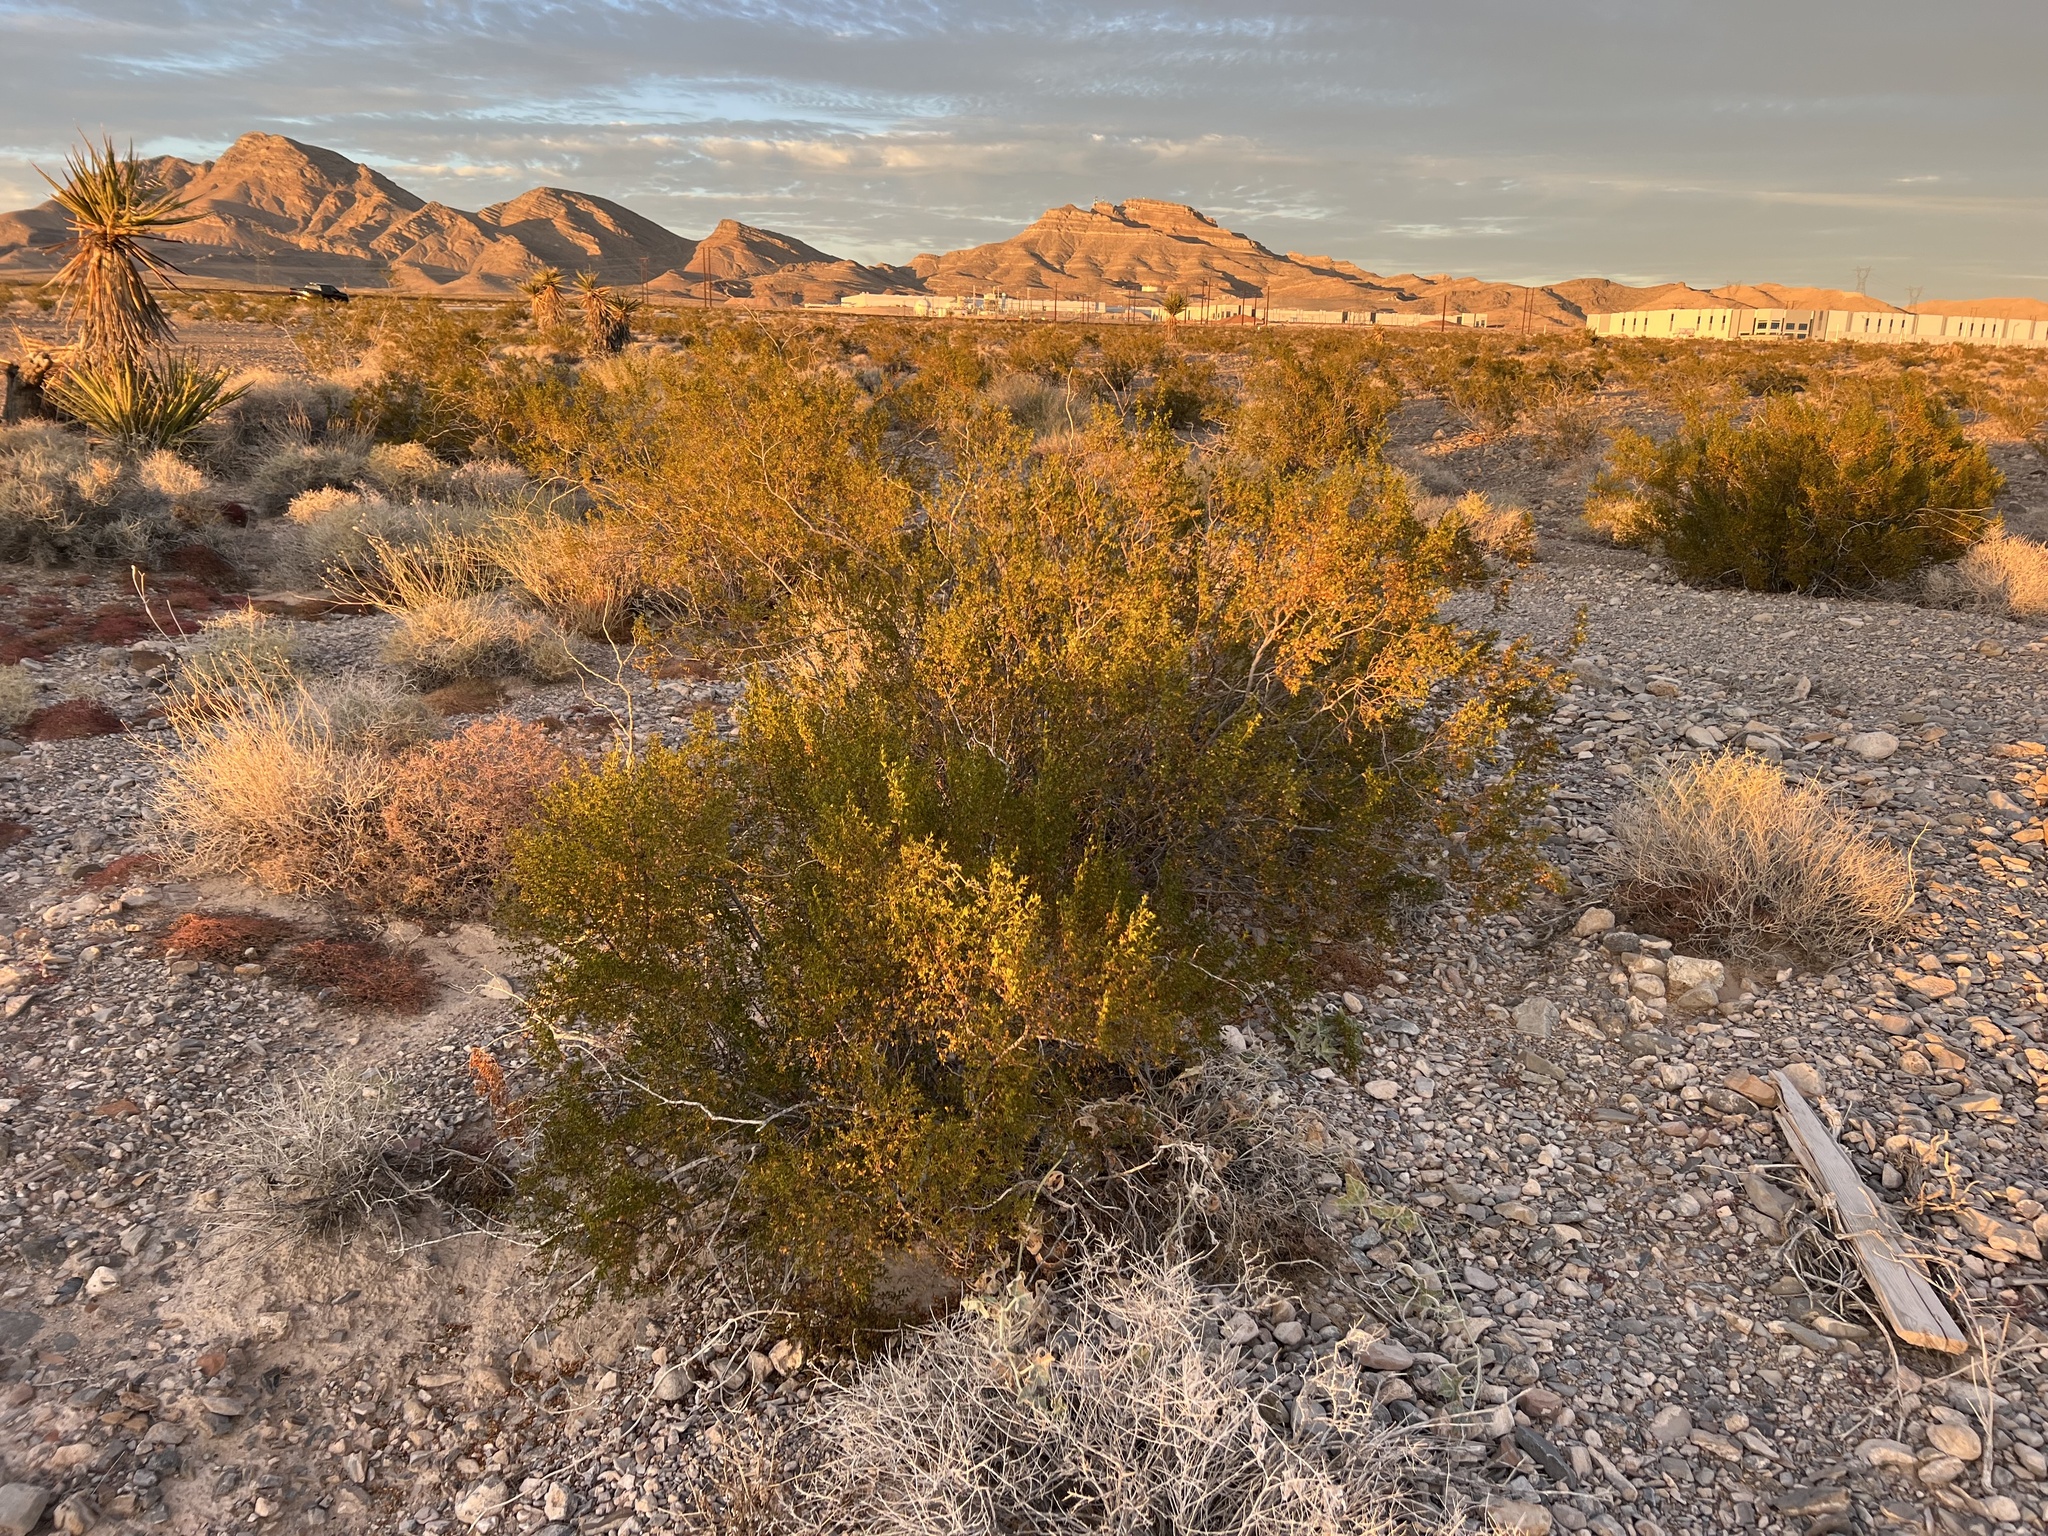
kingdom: Plantae
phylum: Tracheophyta
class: Magnoliopsida
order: Zygophyllales
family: Zygophyllaceae
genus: Larrea
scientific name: Larrea tridentata
